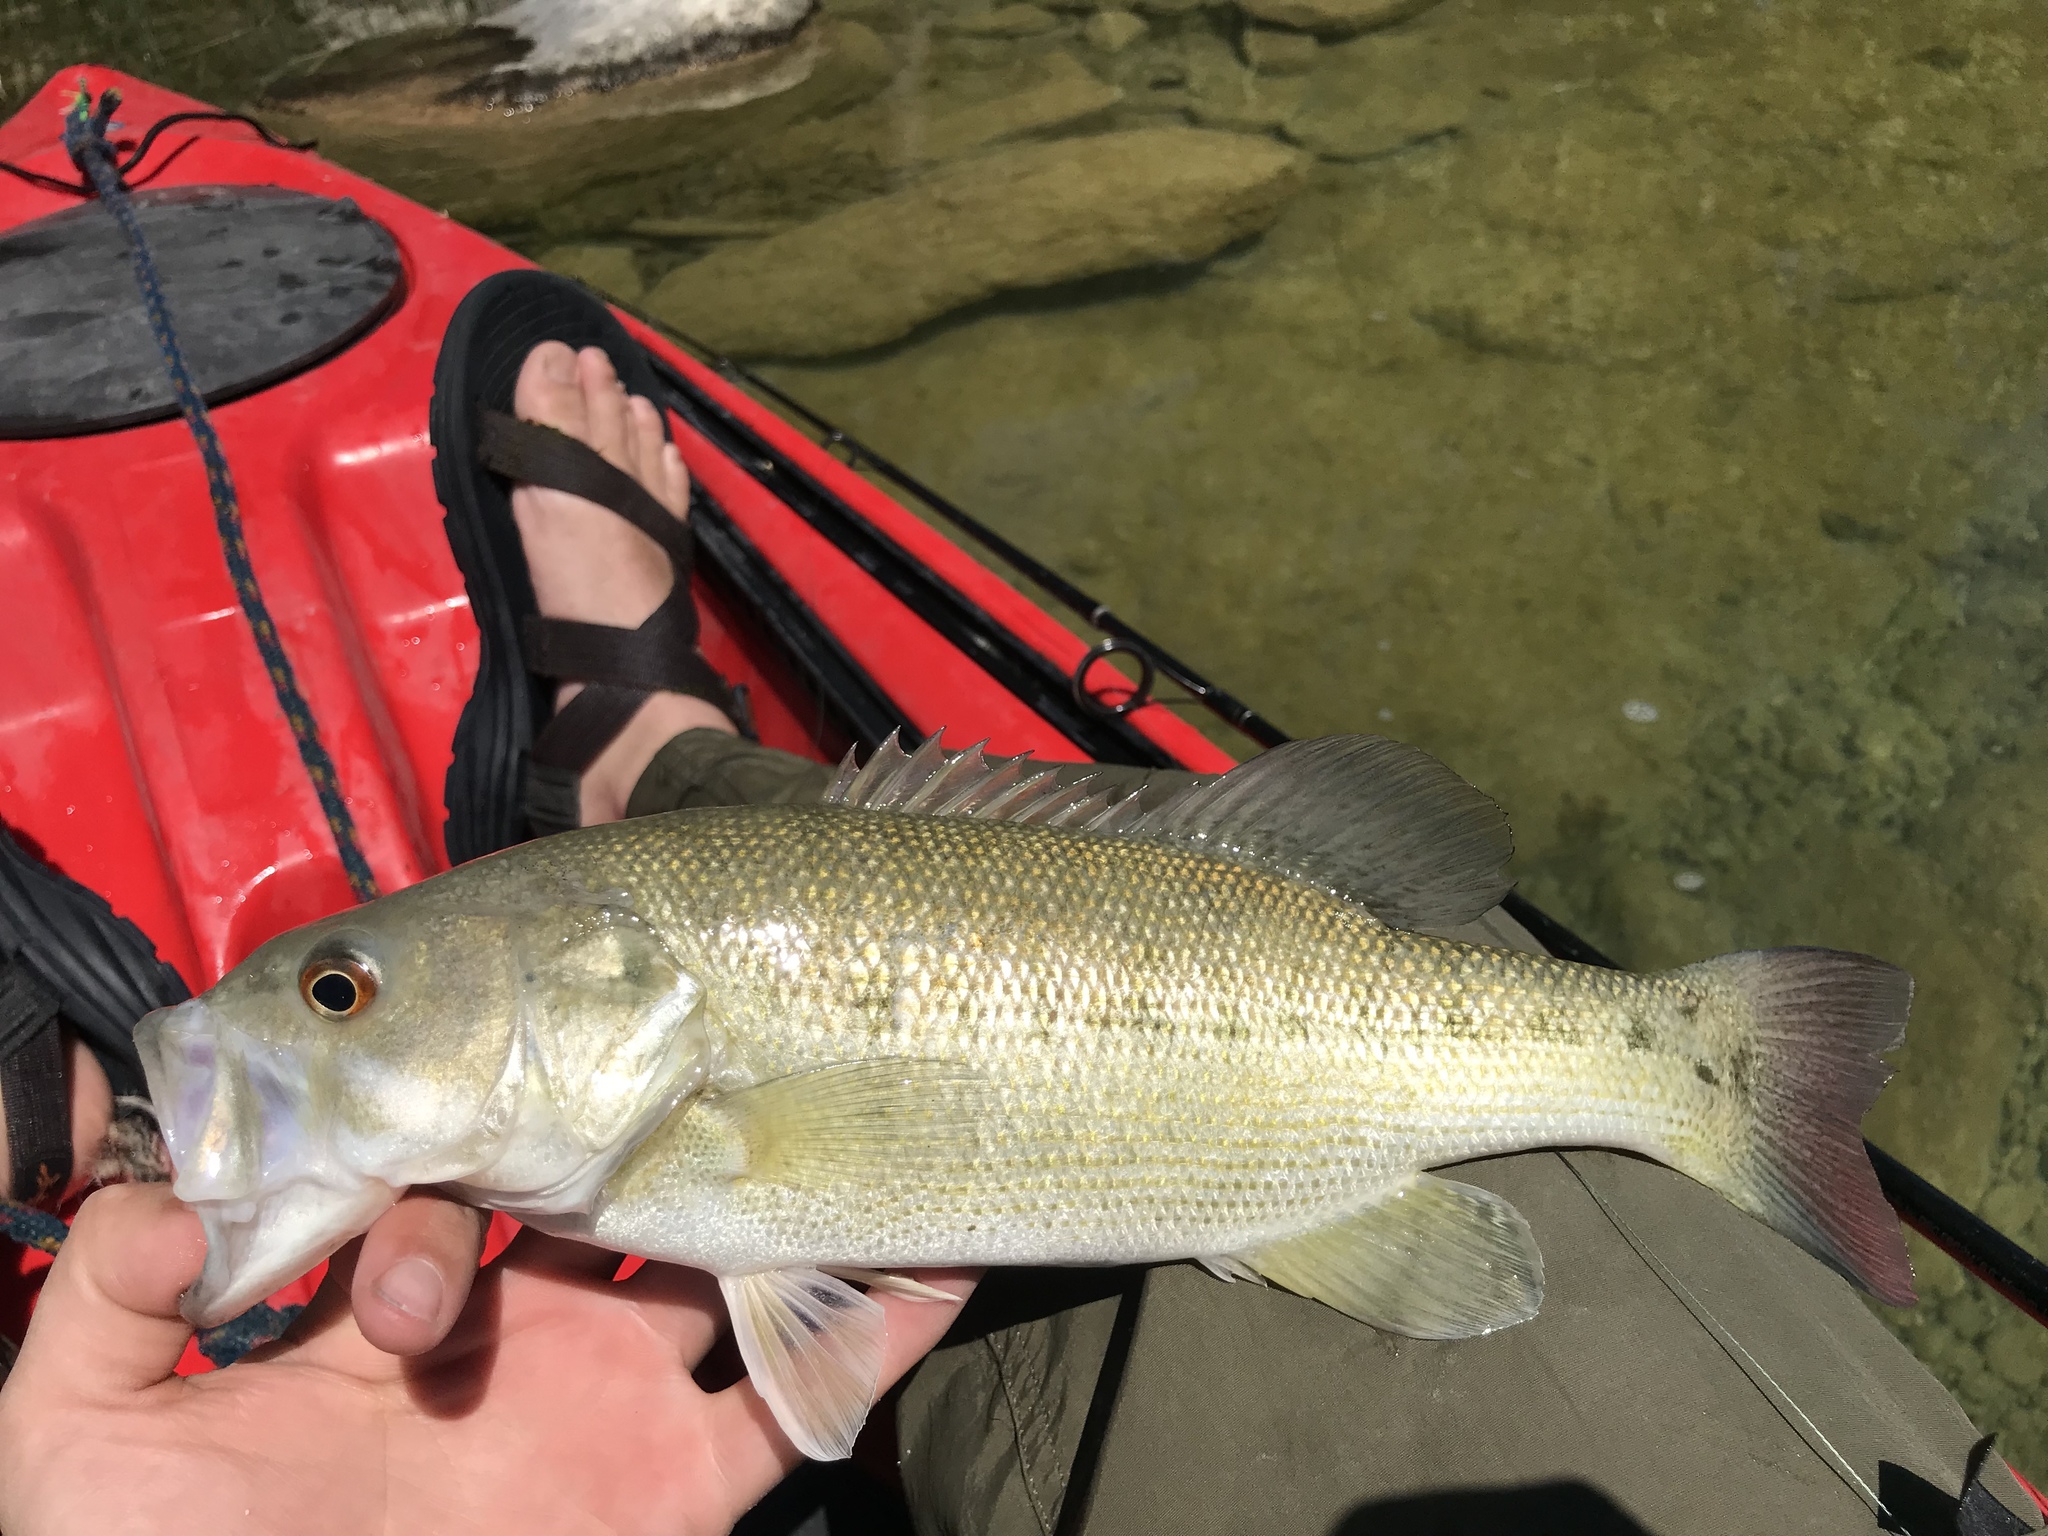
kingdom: Animalia
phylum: Chordata
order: Perciformes
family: Centrarchidae
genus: Micropterus
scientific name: Micropterus treculii
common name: Guadalupe bass
